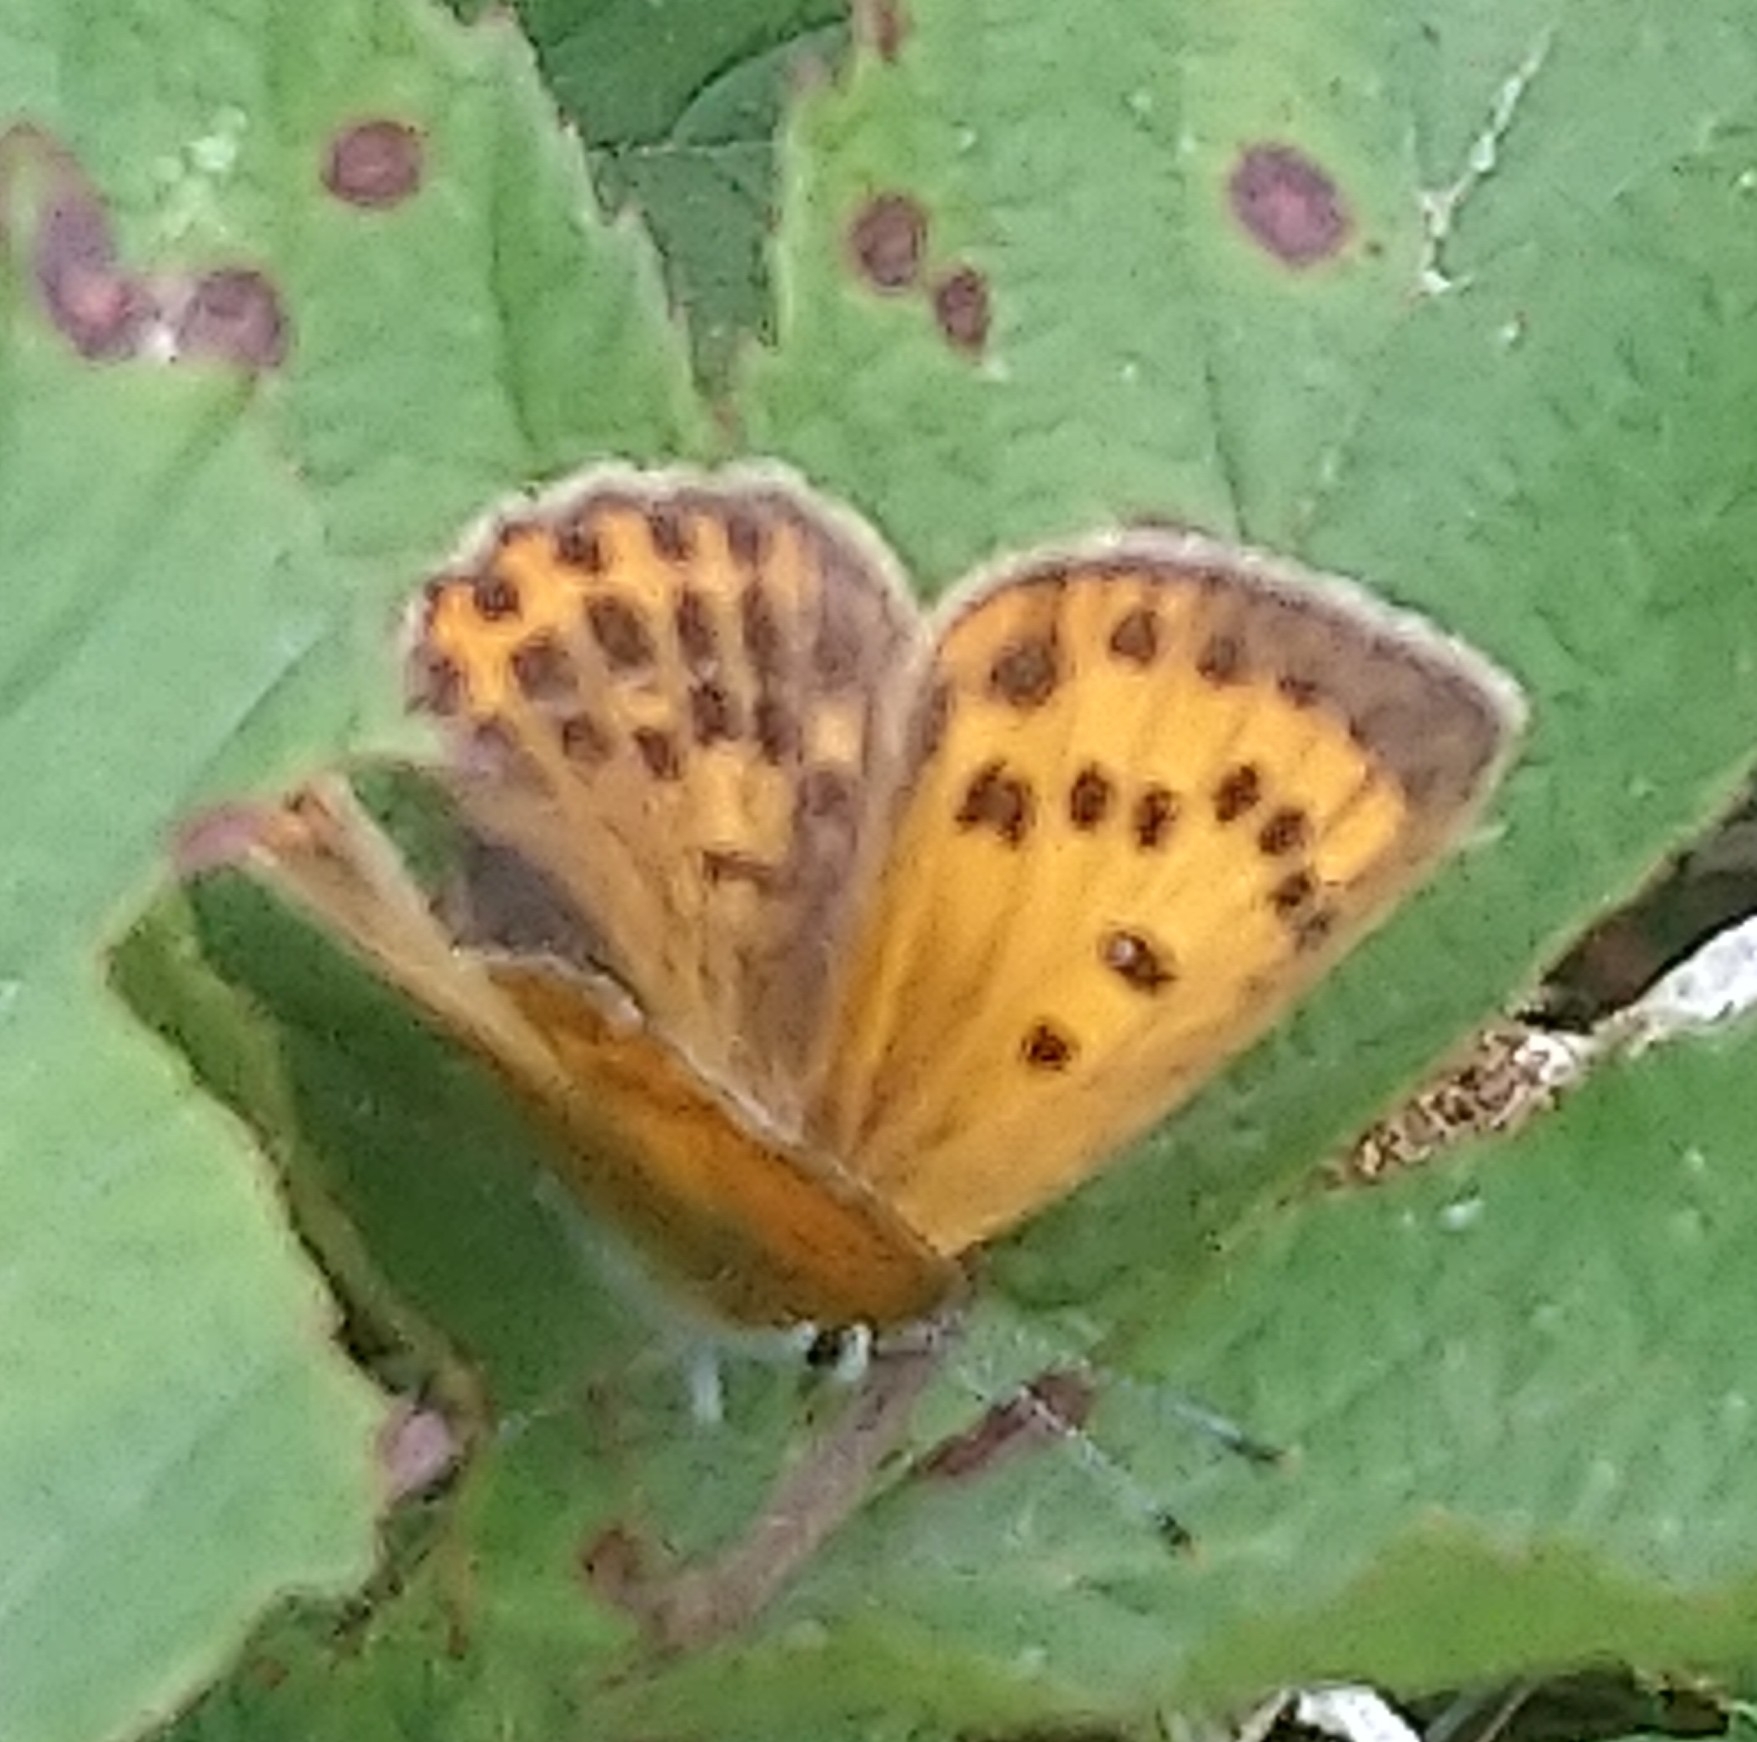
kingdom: Animalia
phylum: Arthropoda
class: Insecta
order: Lepidoptera
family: Lycaenidae
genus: Lycaena
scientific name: Lycaena virgaureae
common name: Scarce copper
